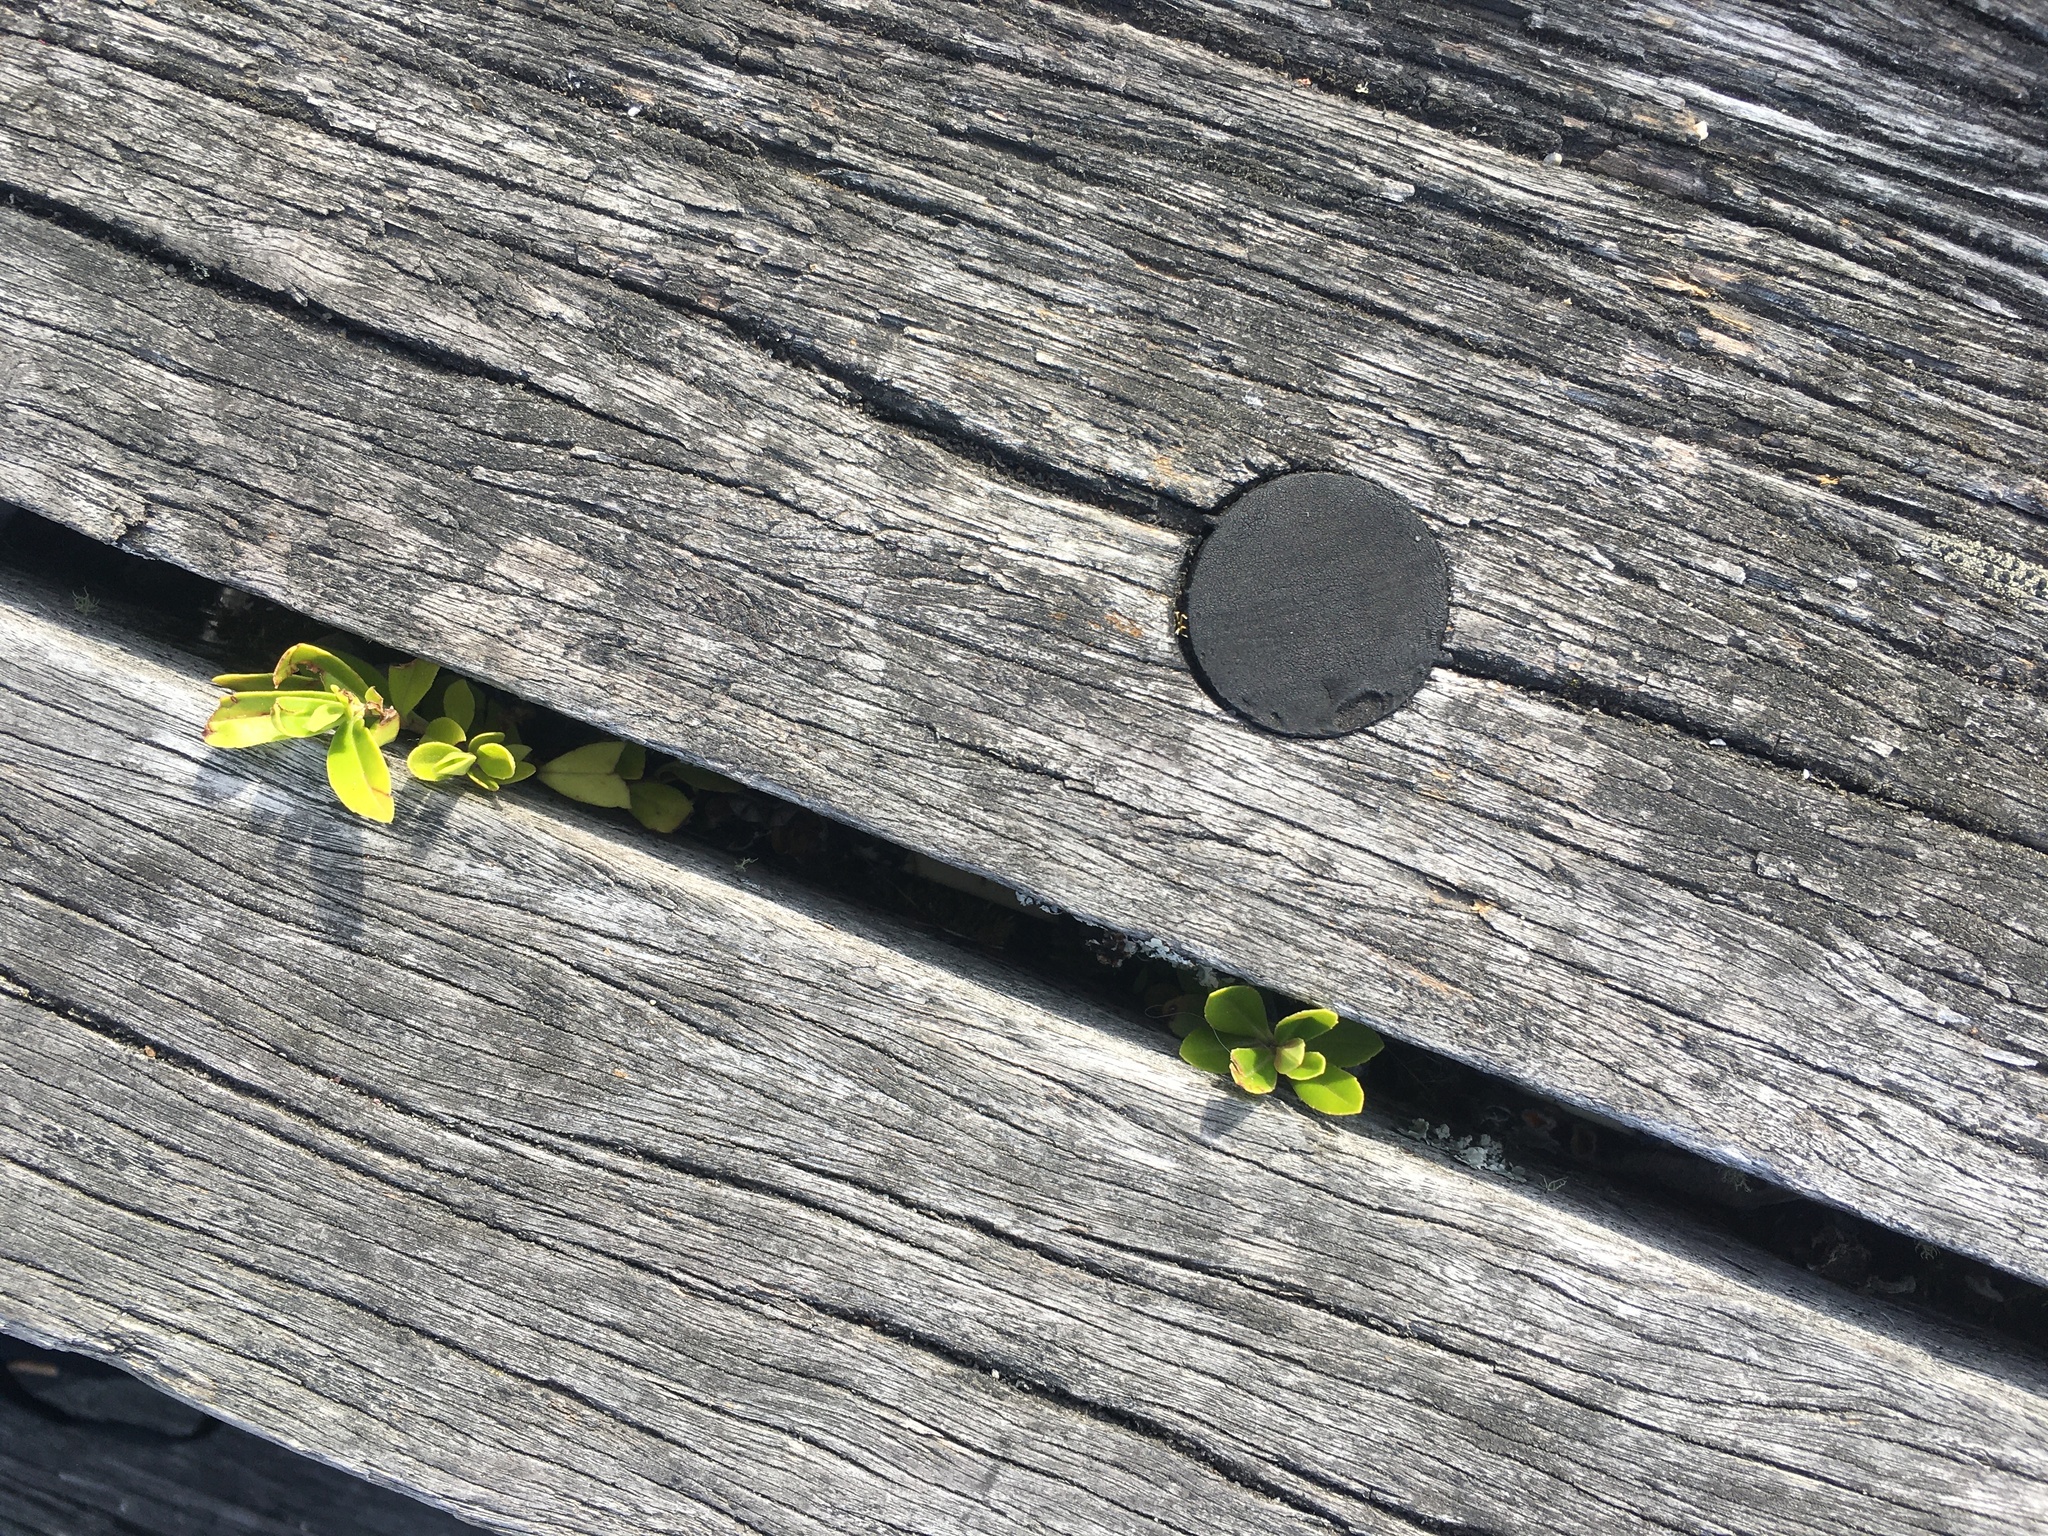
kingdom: Plantae
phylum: Tracheophyta
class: Magnoliopsida
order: Lamiales
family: Plantaginaceae
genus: Veronica
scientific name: Veronica stricta
